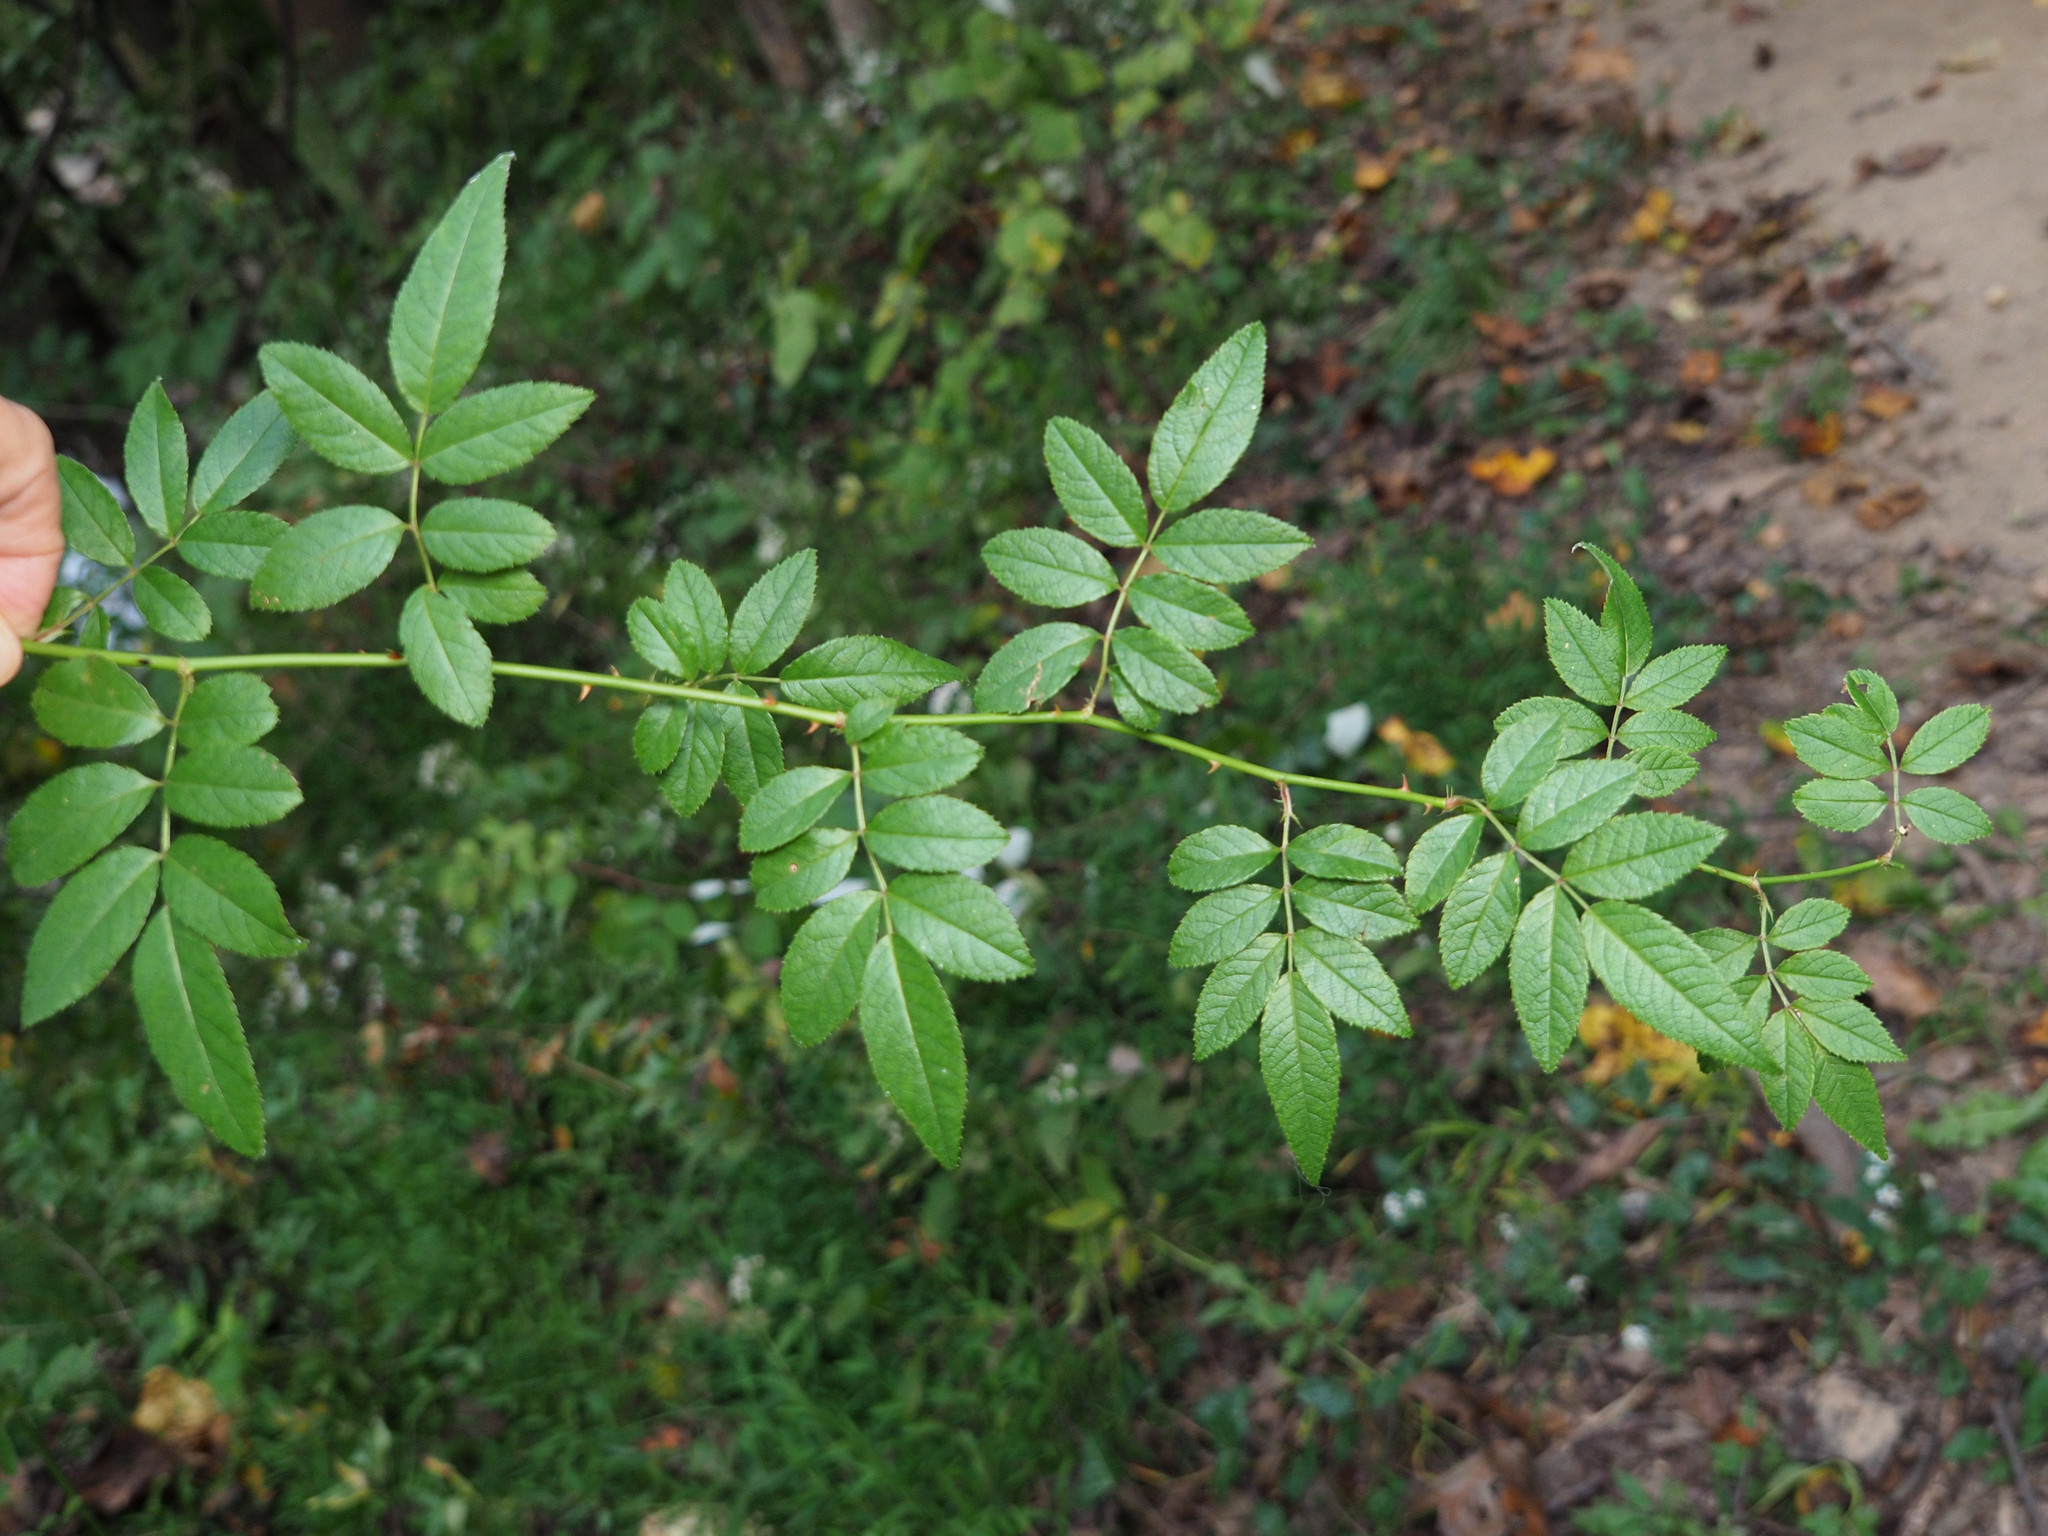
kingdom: Plantae
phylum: Tracheophyta
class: Magnoliopsida
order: Rosales
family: Rosaceae
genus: Rosa
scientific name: Rosa multiflora
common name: Multiflora rose
